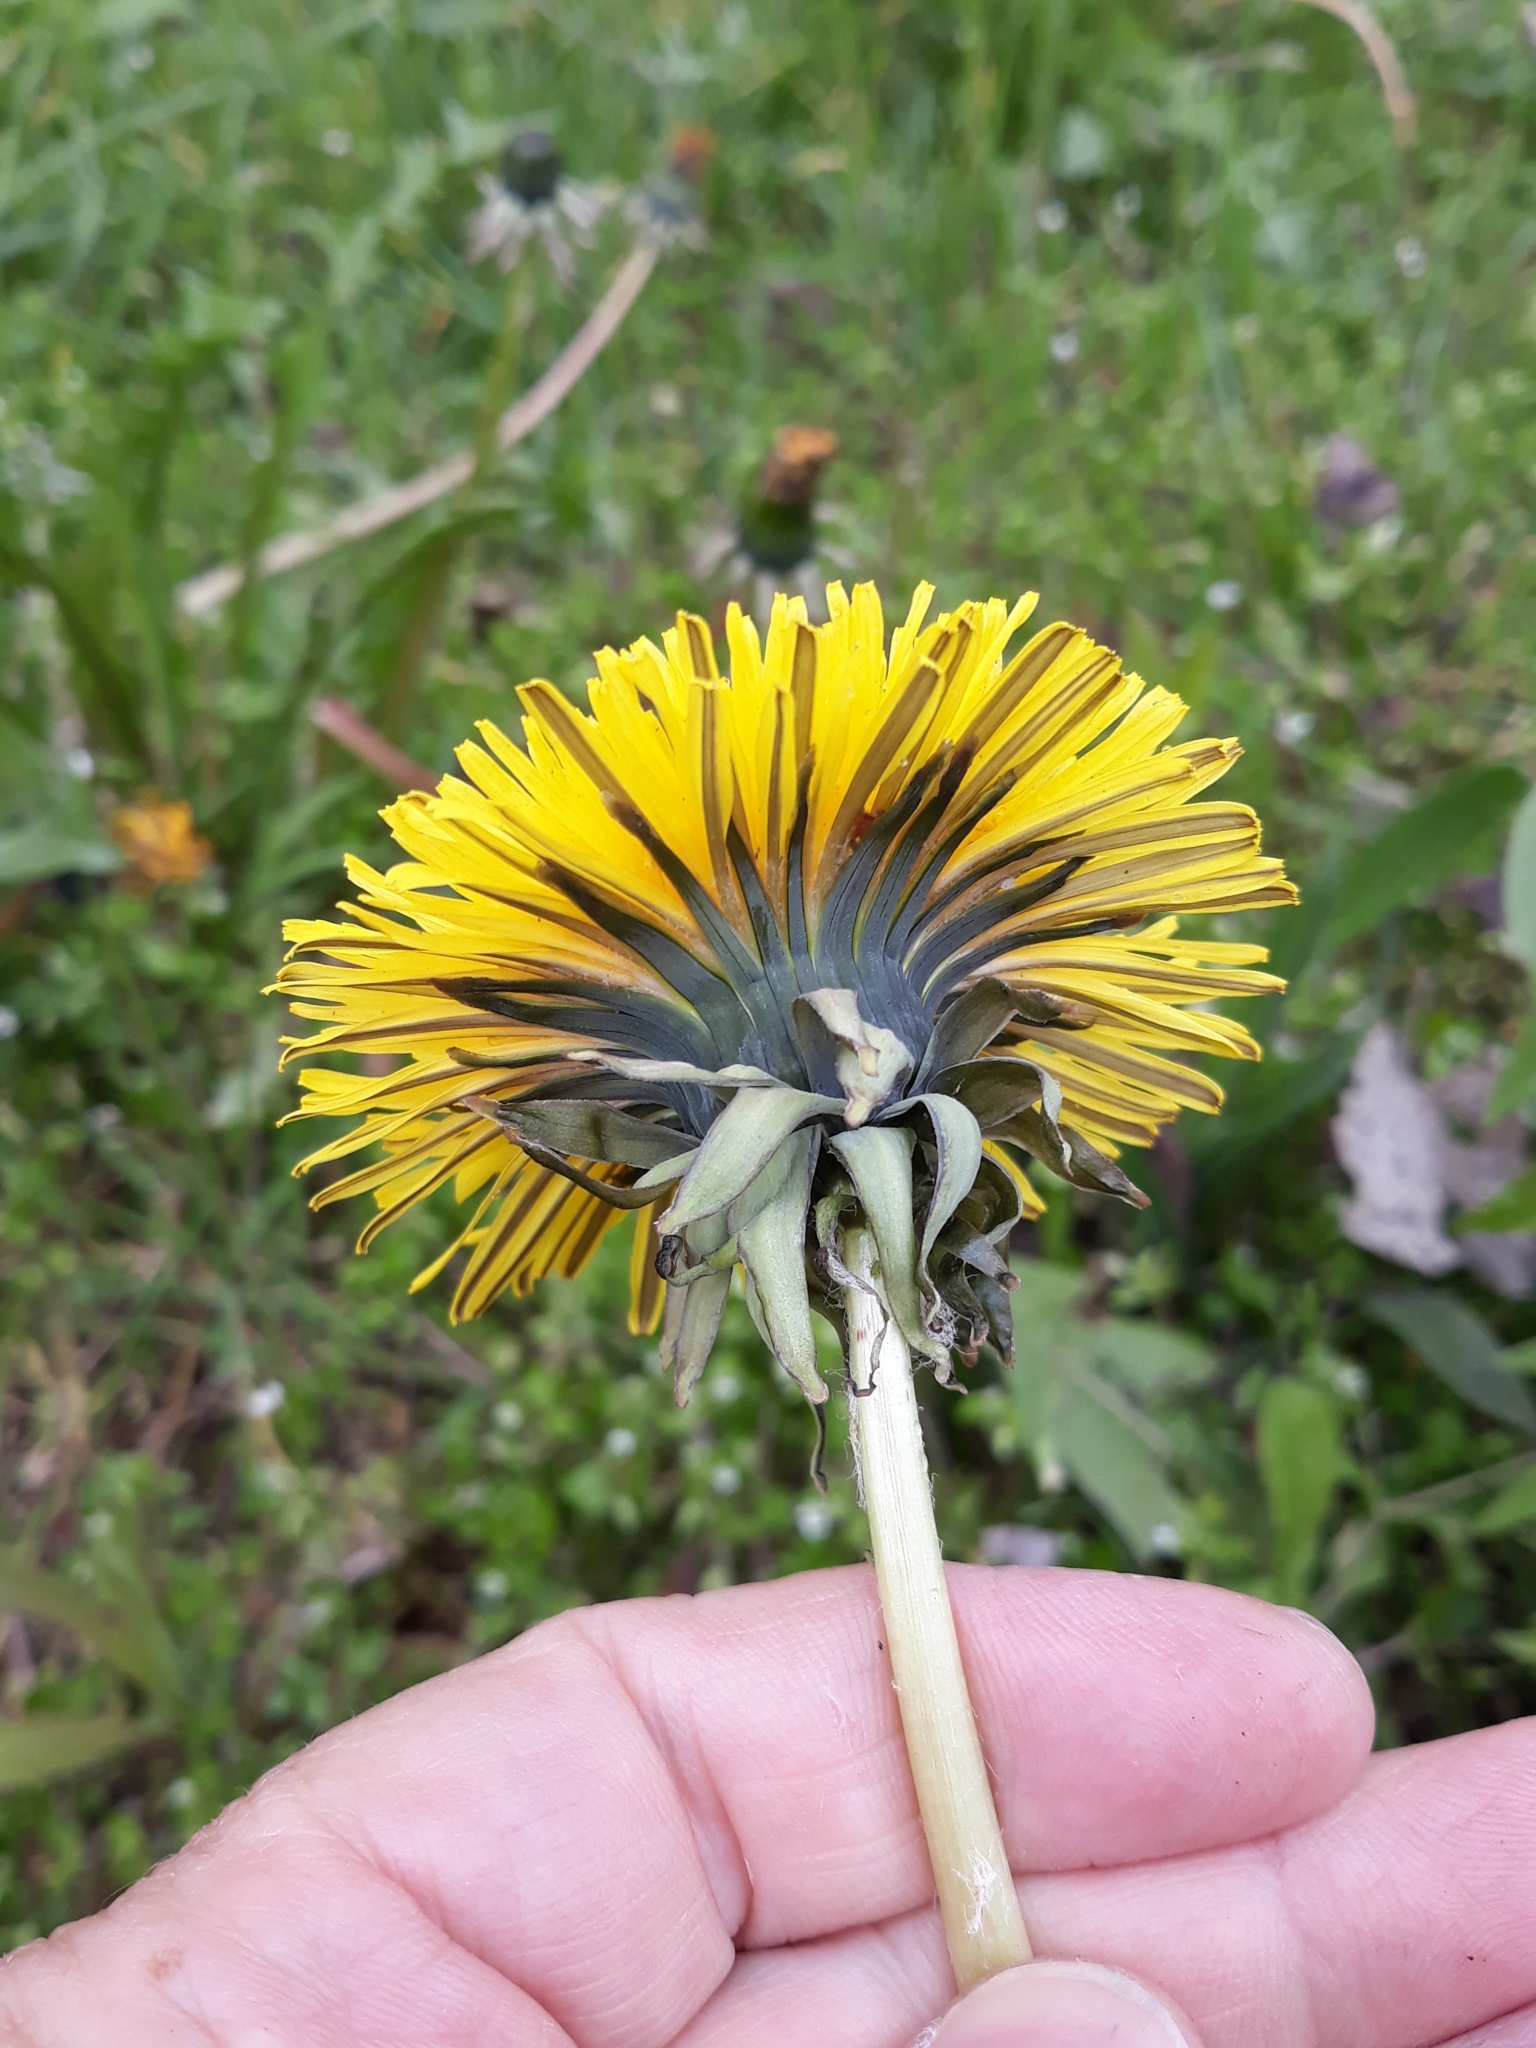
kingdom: Plantae
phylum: Tracheophyta
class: Magnoliopsida
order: Asterales
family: Asteraceae
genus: Taraxacum
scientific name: Taraxacum officinale
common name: Common dandelion
